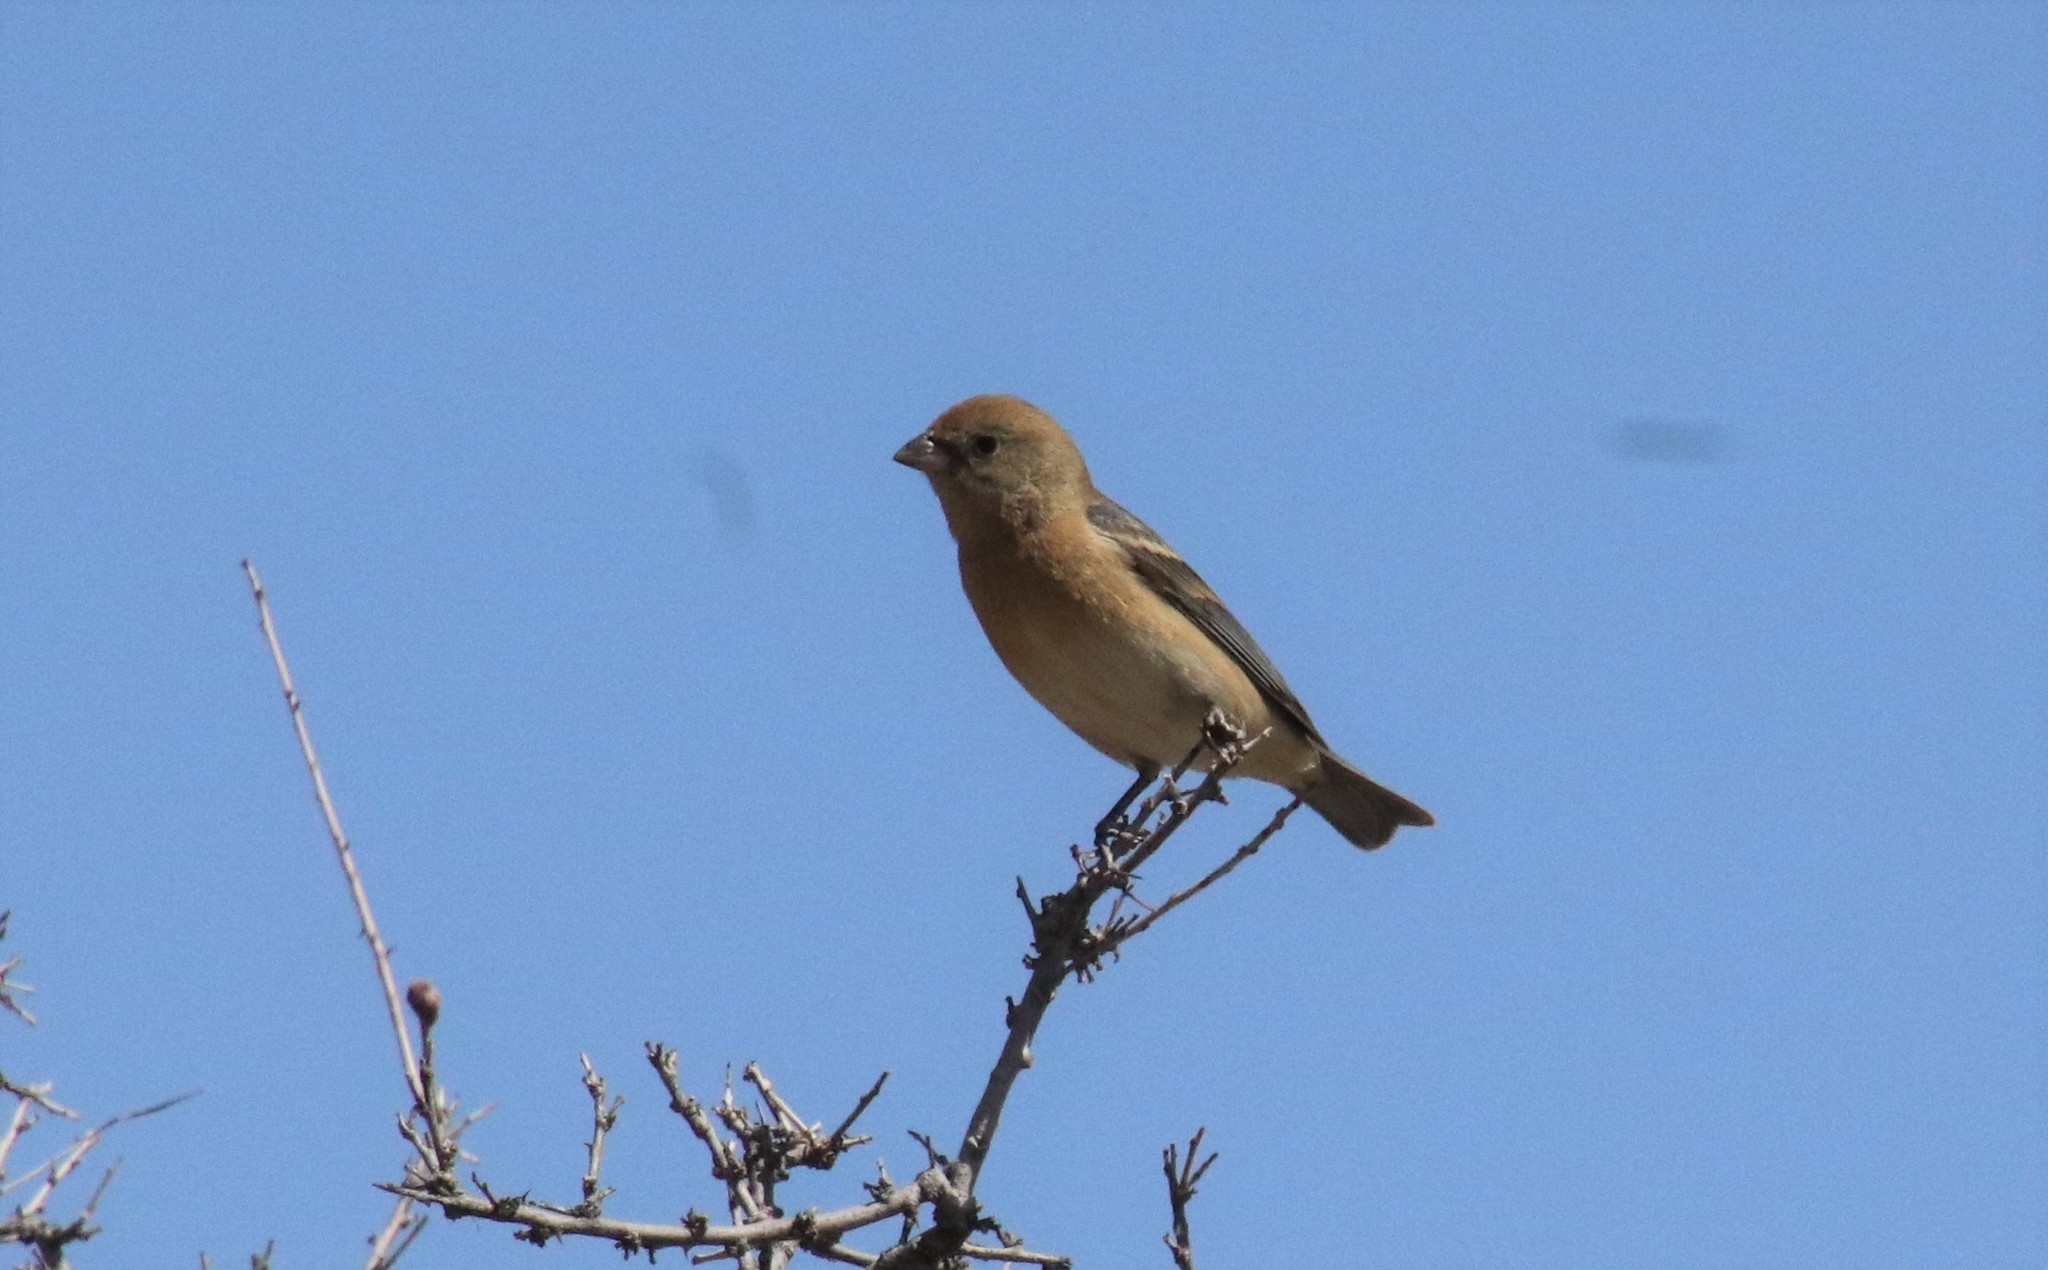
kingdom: Animalia
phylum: Chordata
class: Aves
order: Passeriformes
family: Cardinalidae
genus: Passerina
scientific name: Passerina amoena
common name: Lazuli bunting
